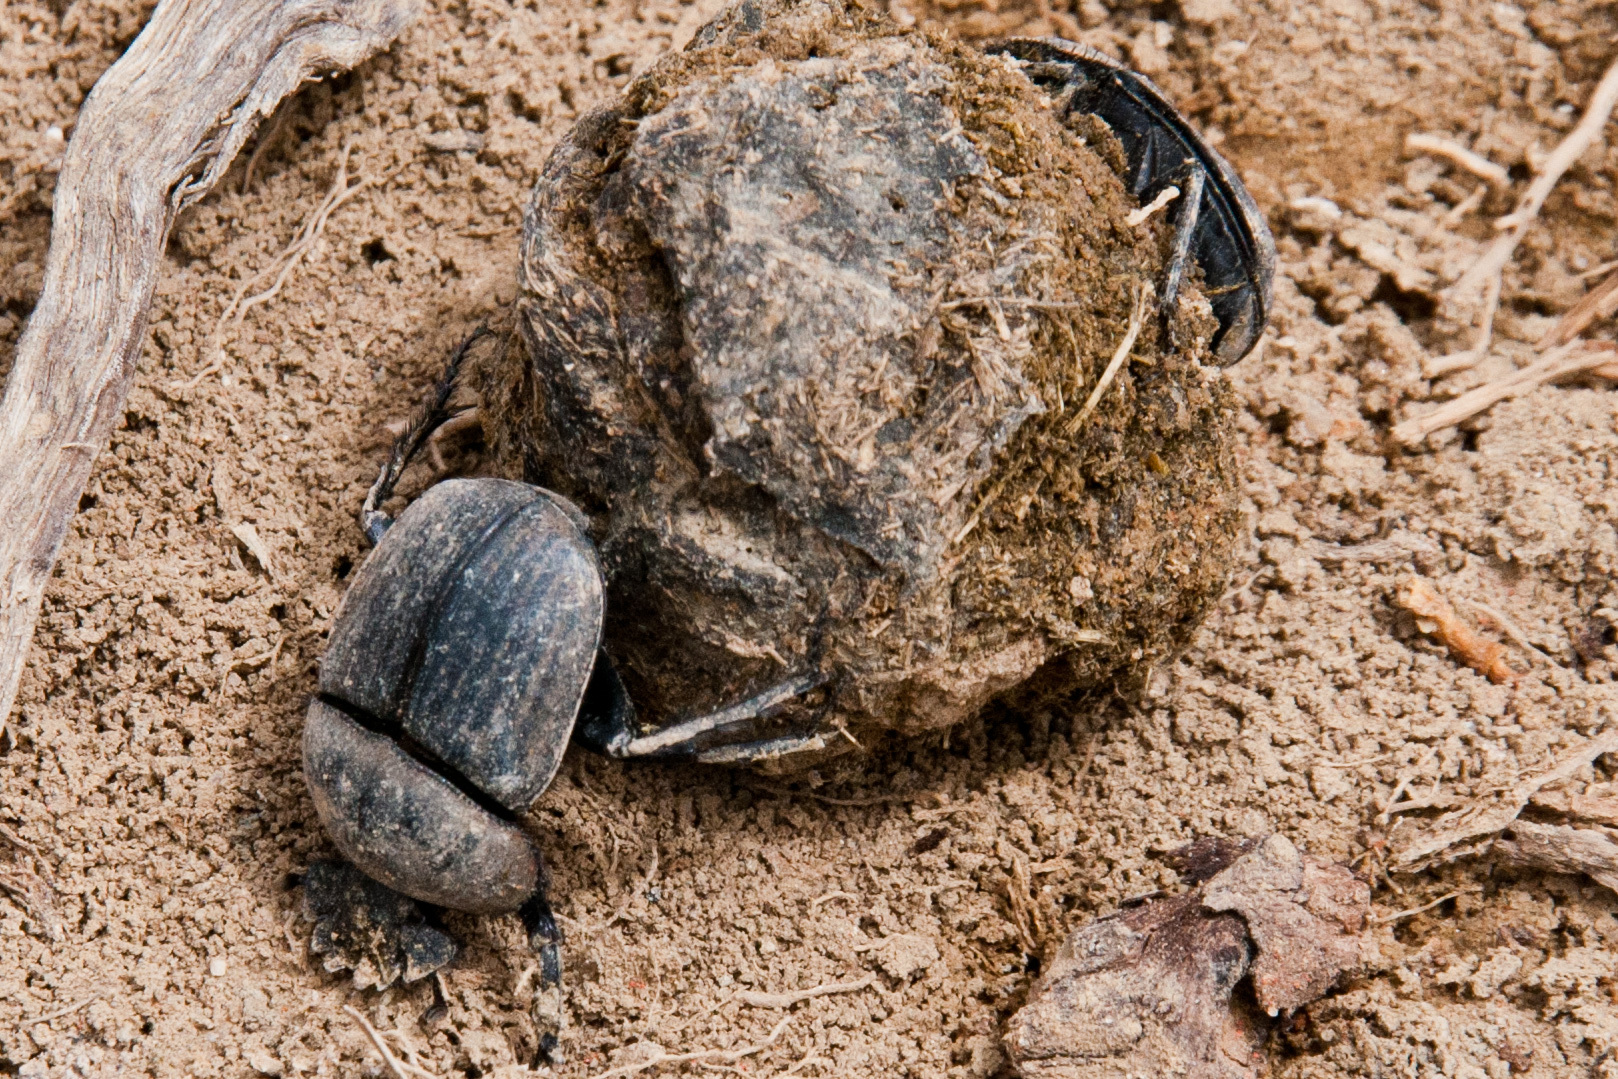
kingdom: Animalia
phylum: Arthropoda
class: Insecta
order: Coleoptera
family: Scarabaeidae
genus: Kheper
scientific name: Kheper bonellii
